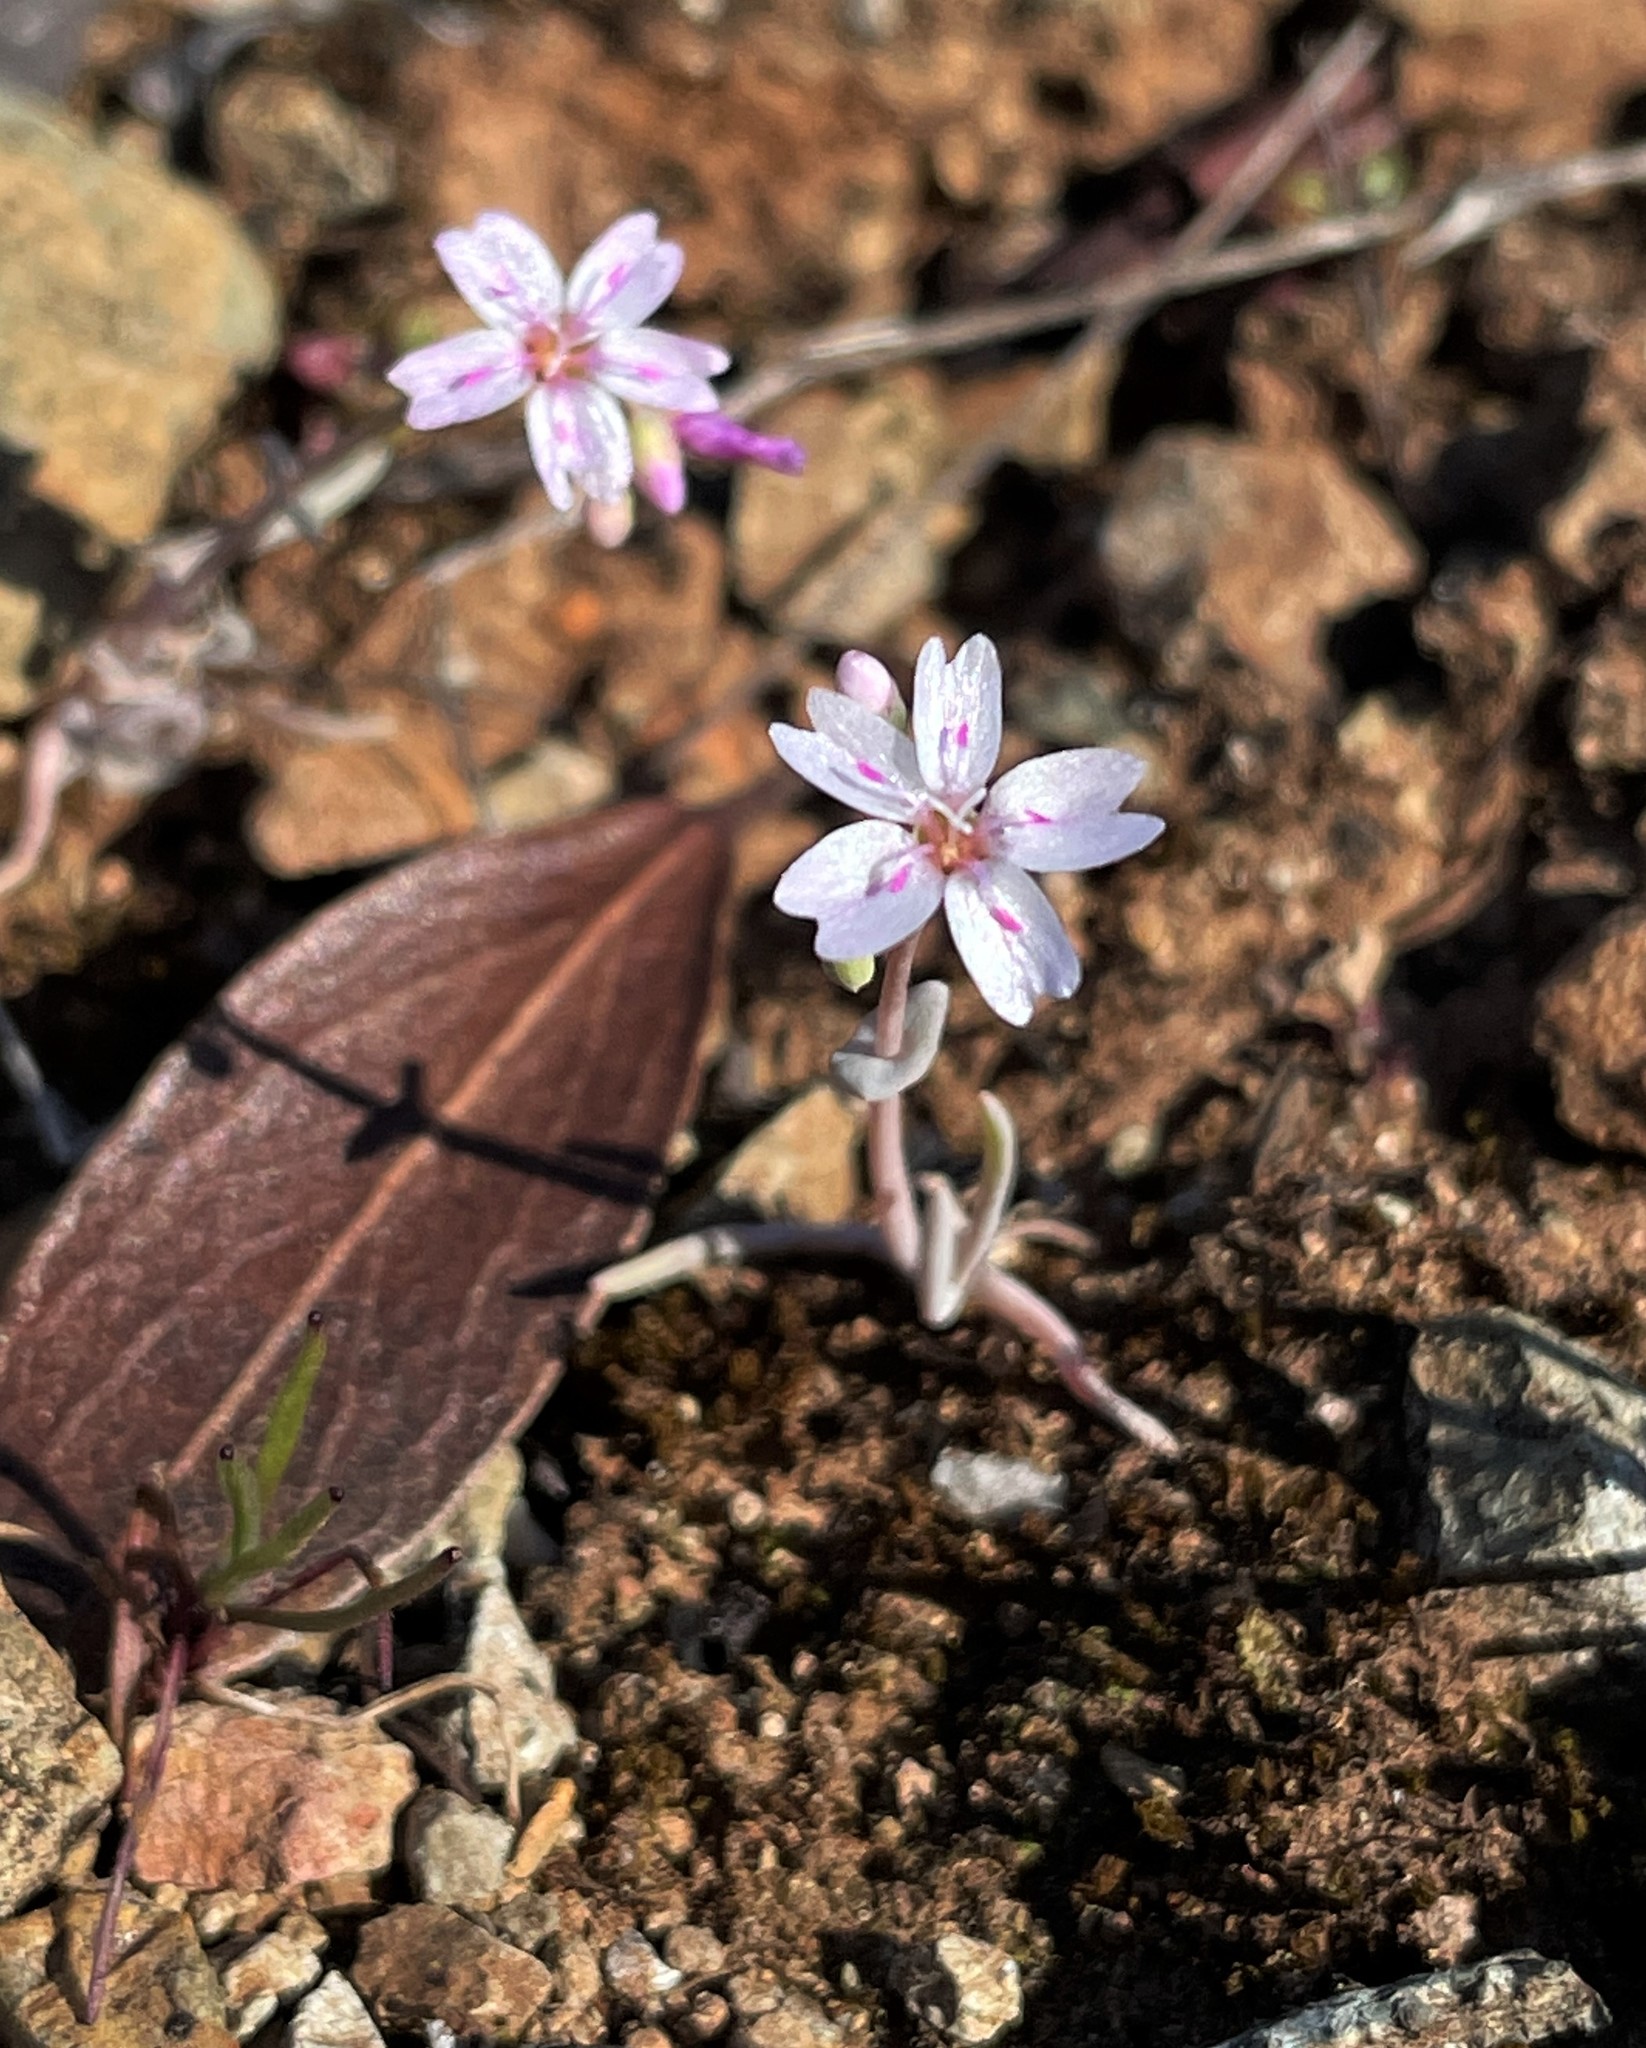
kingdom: Plantae
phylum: Tracheophyta
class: Magnoliopsida
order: Caryophyllales
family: Montiaceae
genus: Claytonia
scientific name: Claytonia gypsophiloides
